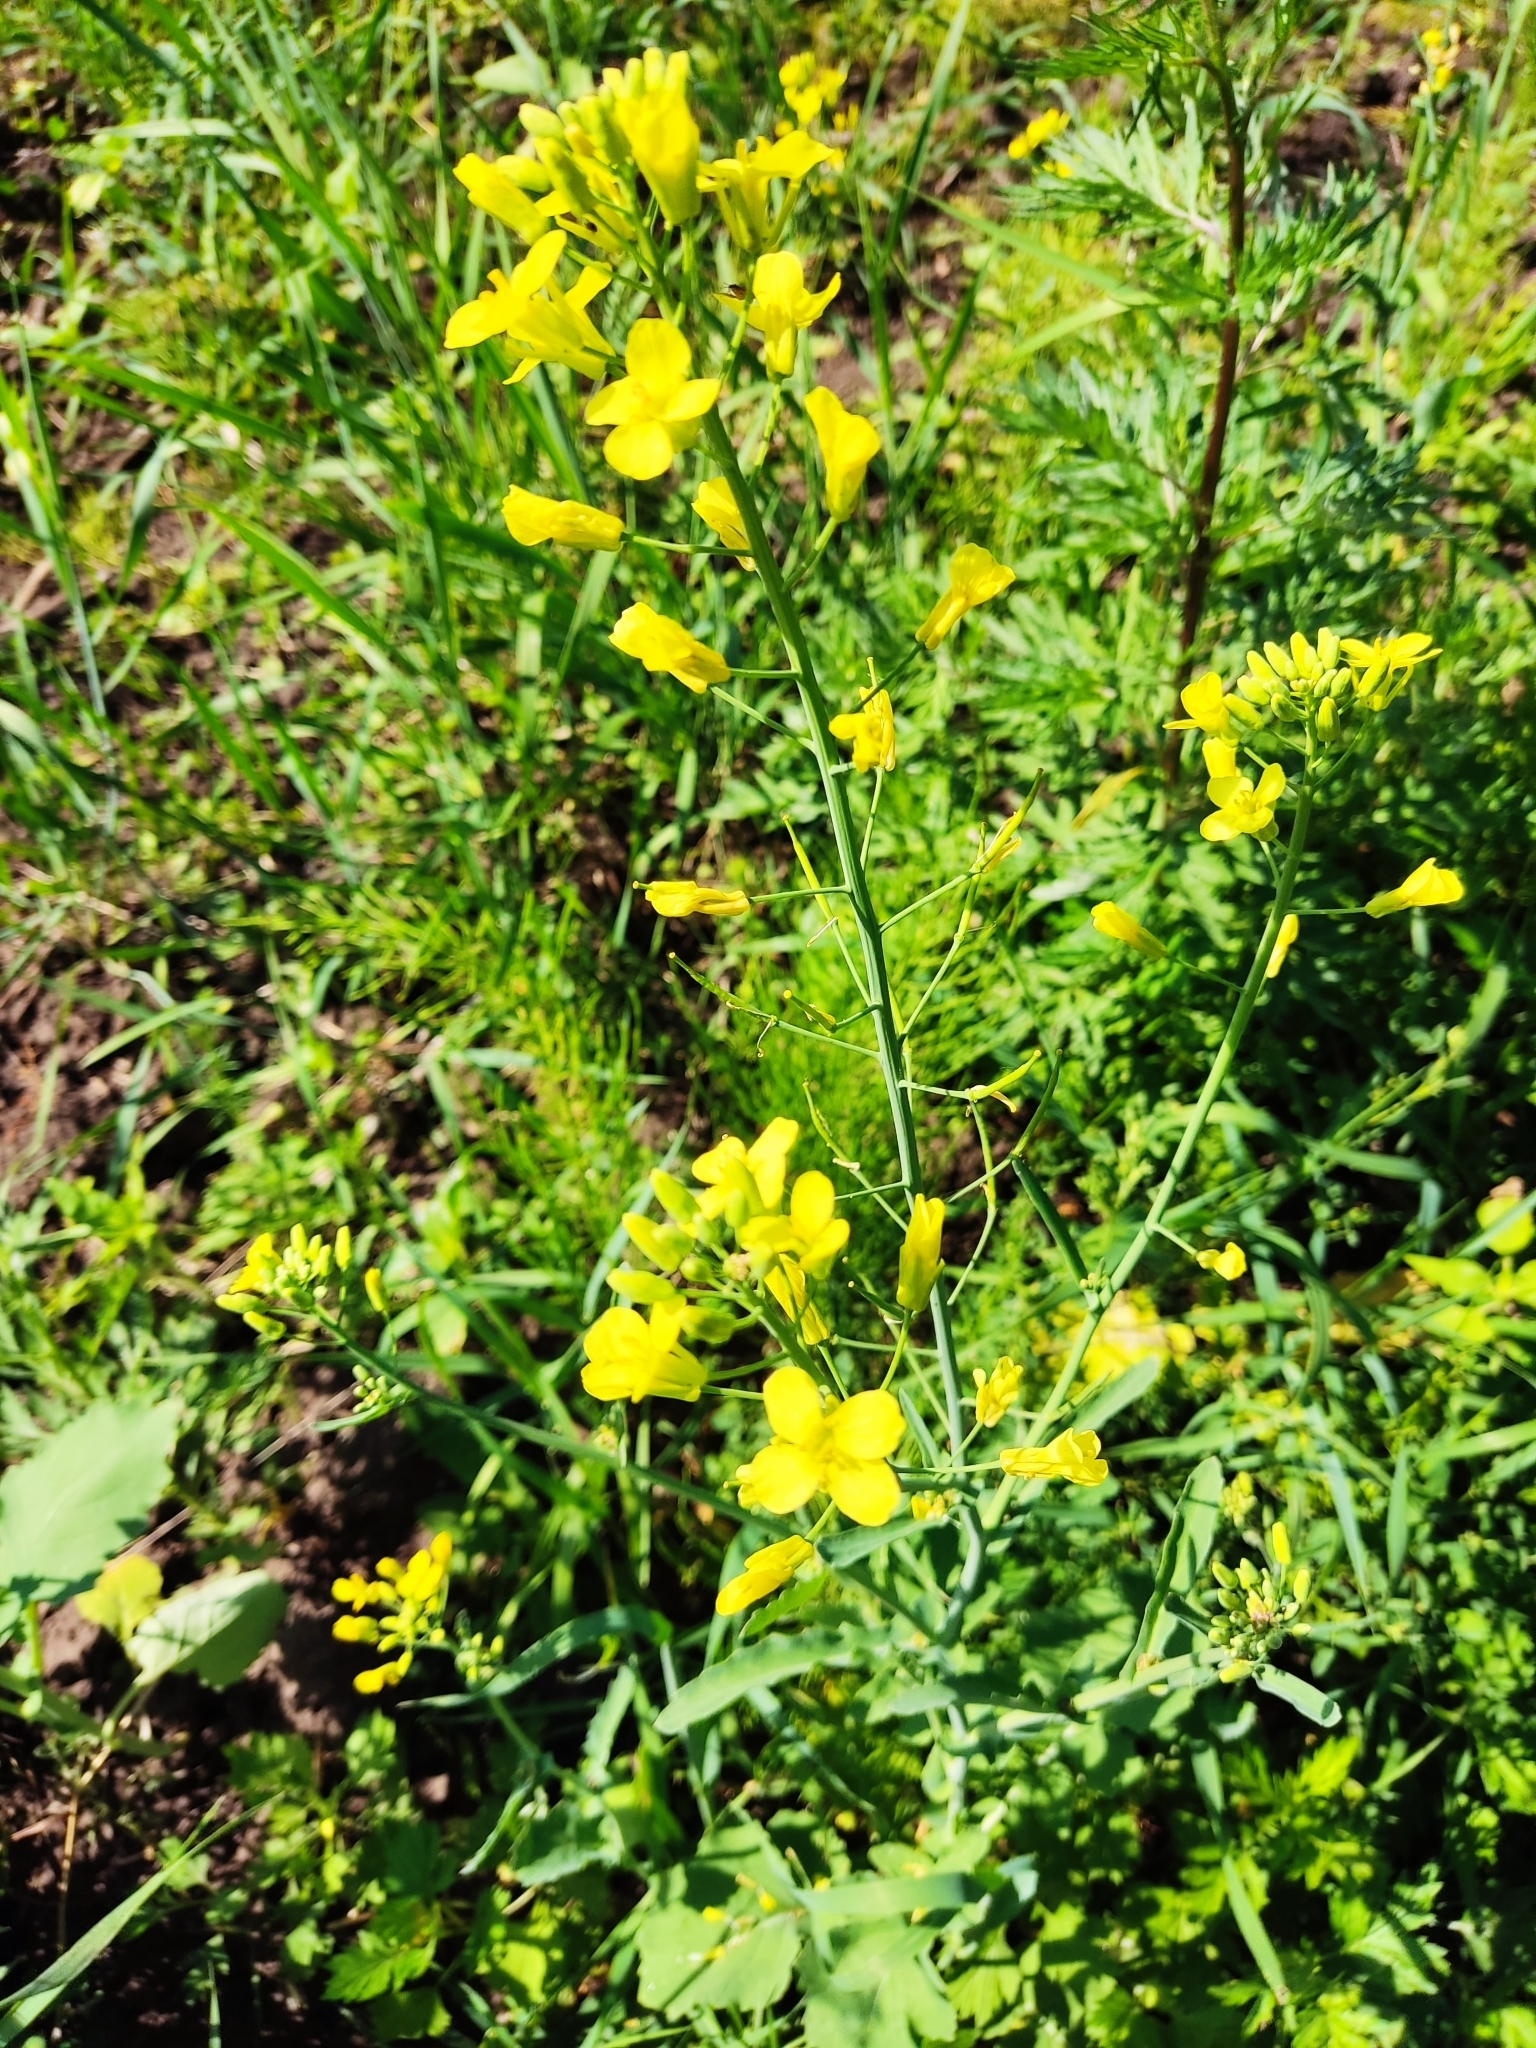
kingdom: Plantae
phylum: Tracheophyta
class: Magnoliopsida
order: Brassicales
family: Brassicaceae
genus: Brassica
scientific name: Brassica rapa
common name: Field mustard
